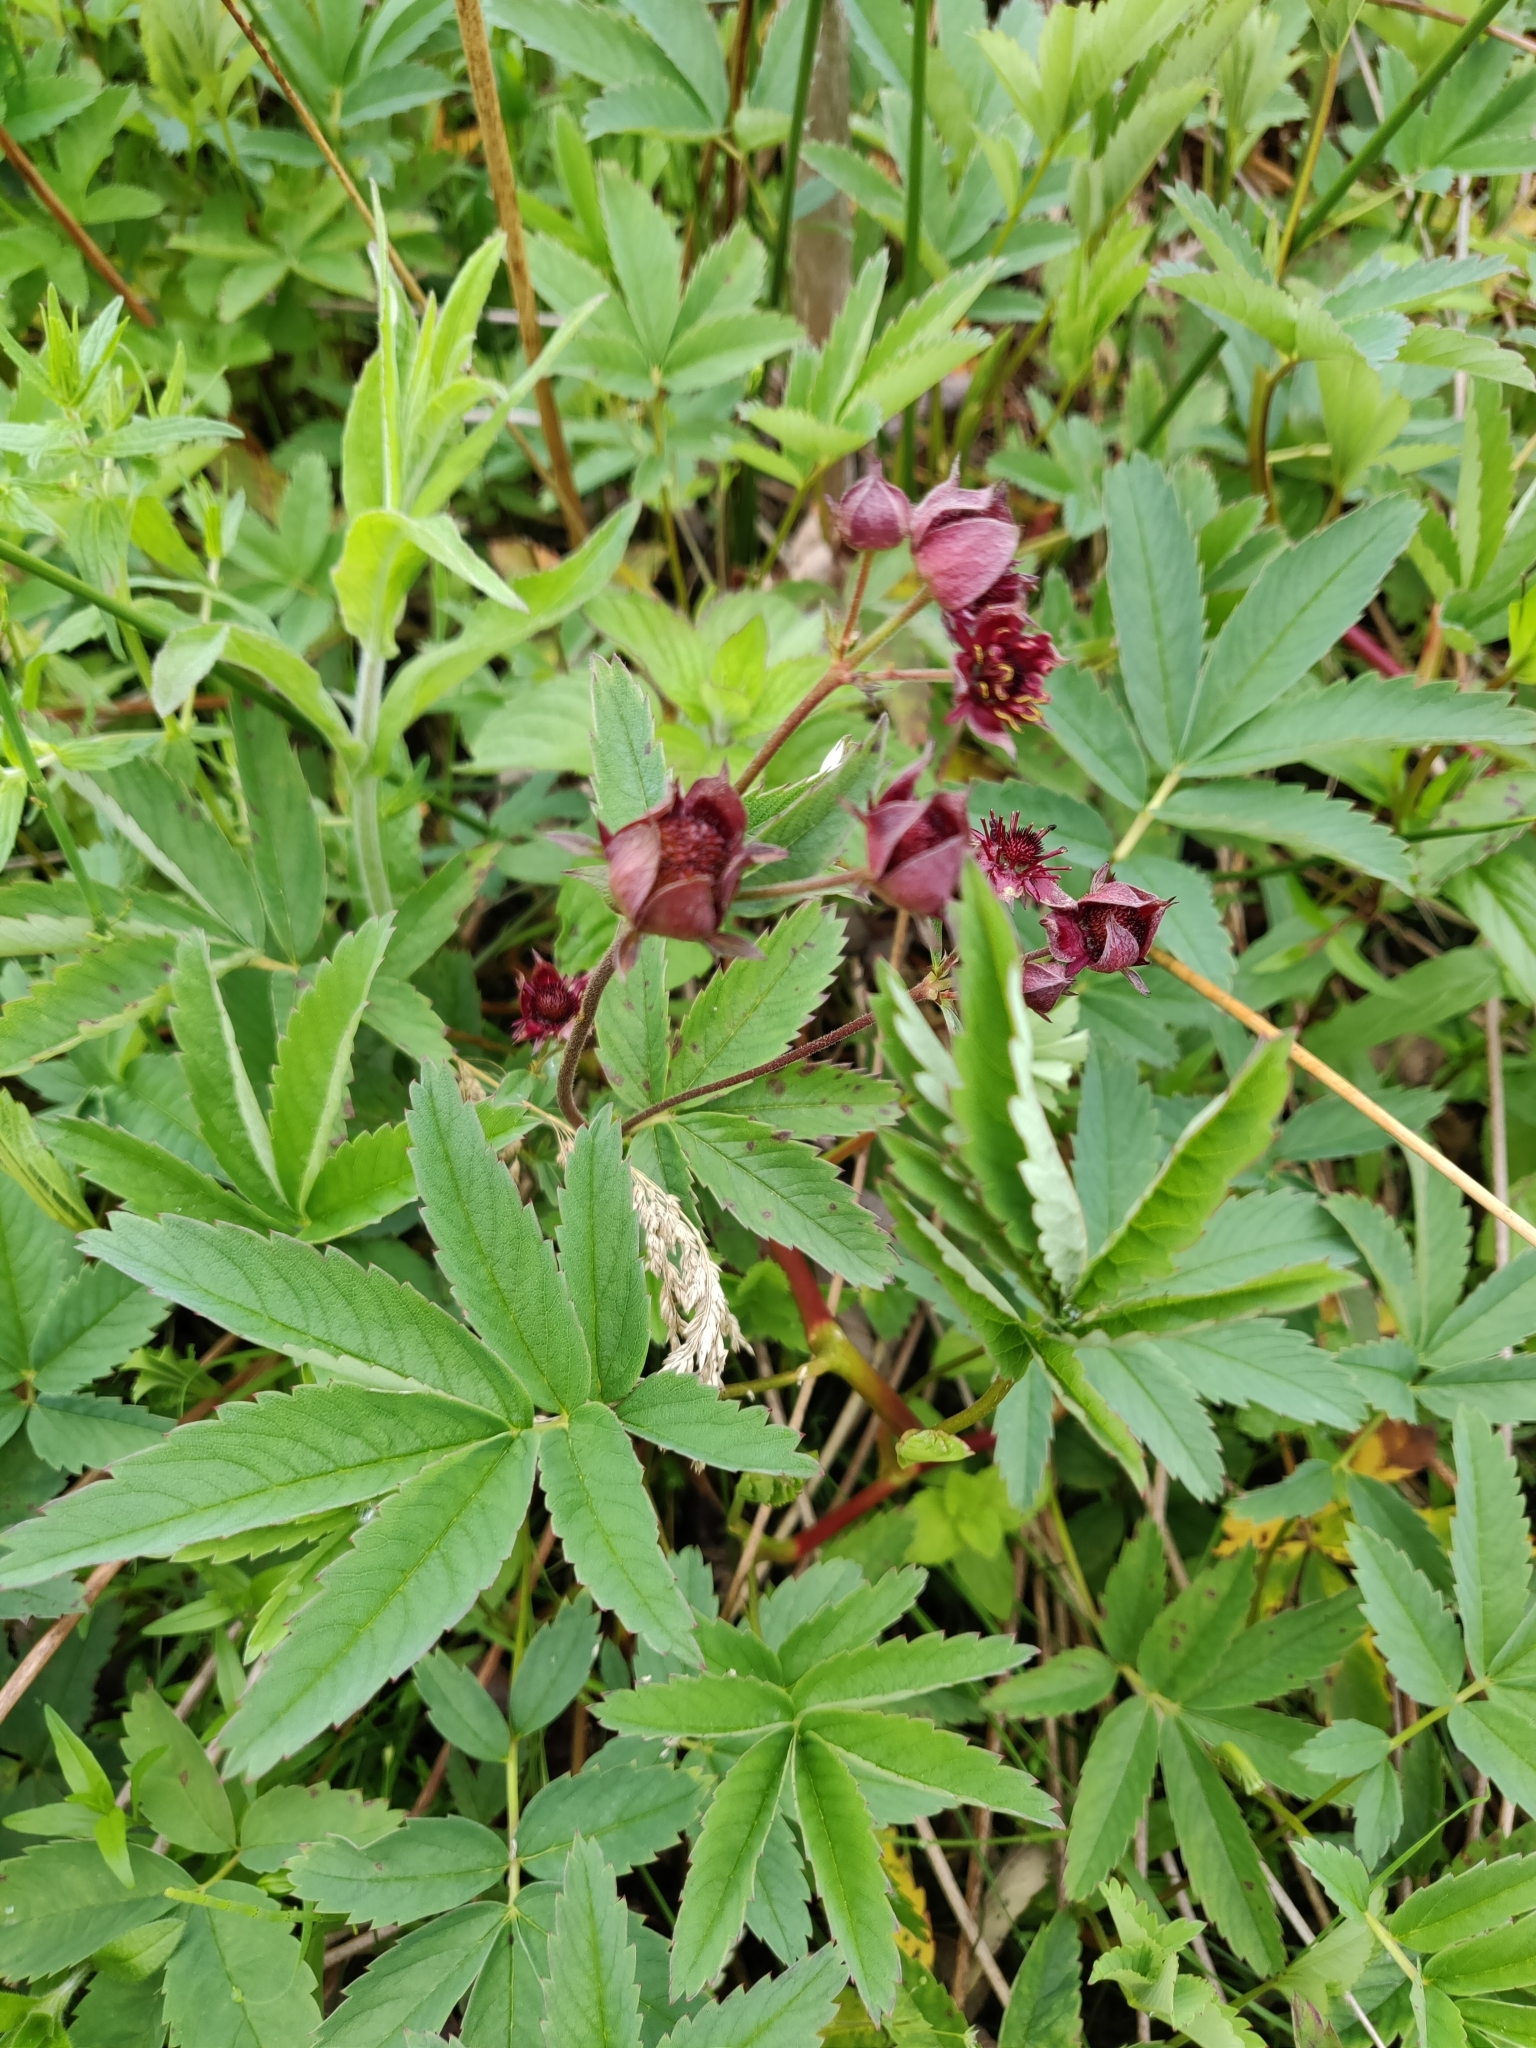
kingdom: Plantae
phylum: Tracheophyta
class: Magnoliopsida
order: Rosales
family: Rosaceae
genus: Comarum
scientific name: Comarum palustre
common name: Marsh cinquefoil
